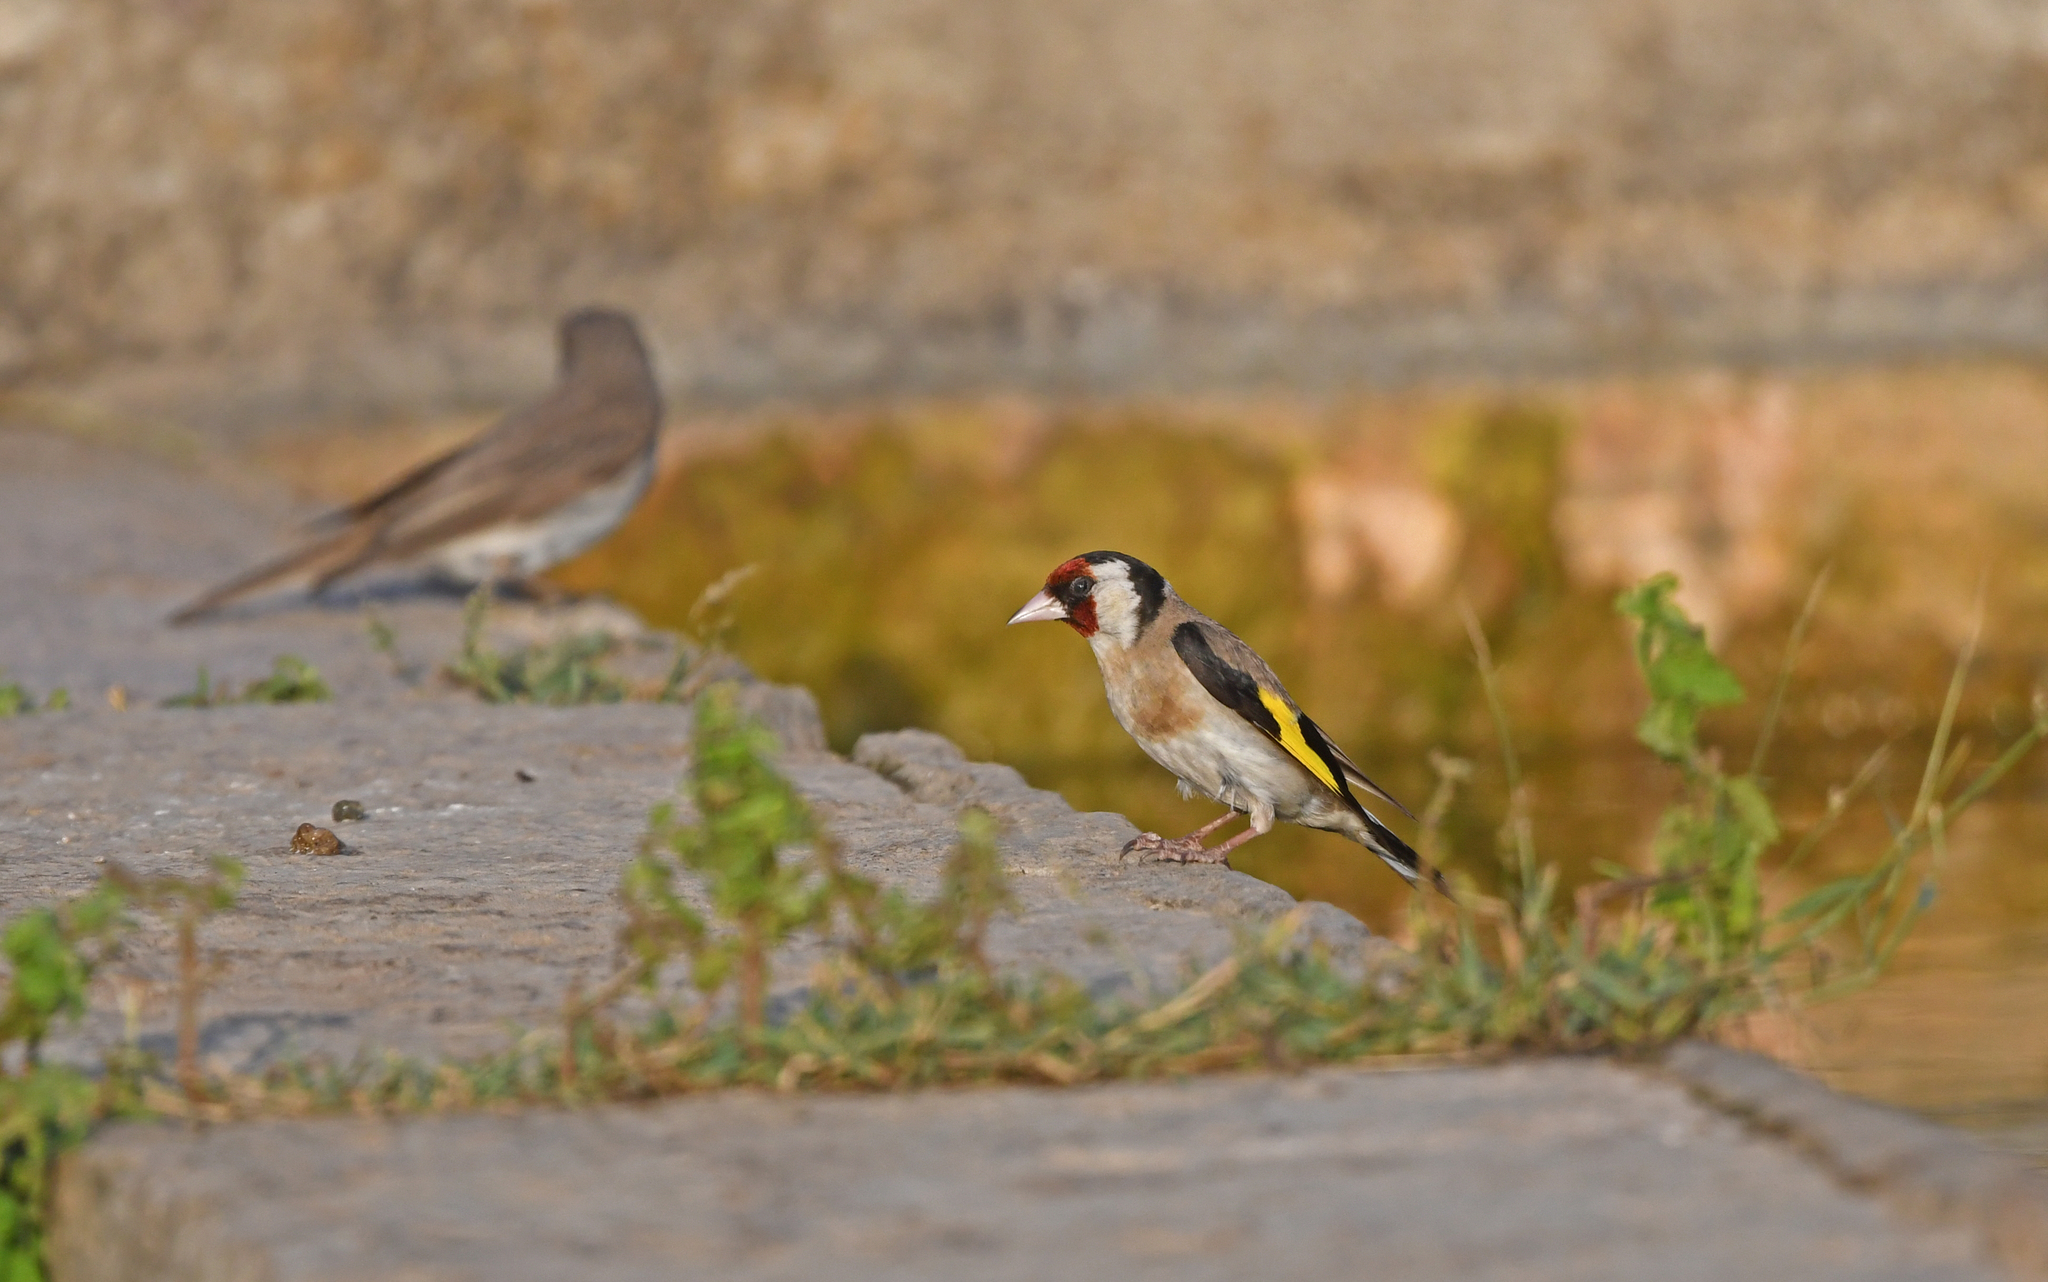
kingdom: Animalia
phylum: Chordata
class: Aves
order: Passeriformes
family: Fringillidae
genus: Carduelis
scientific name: Carduelis carduelis
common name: European goldfinch
